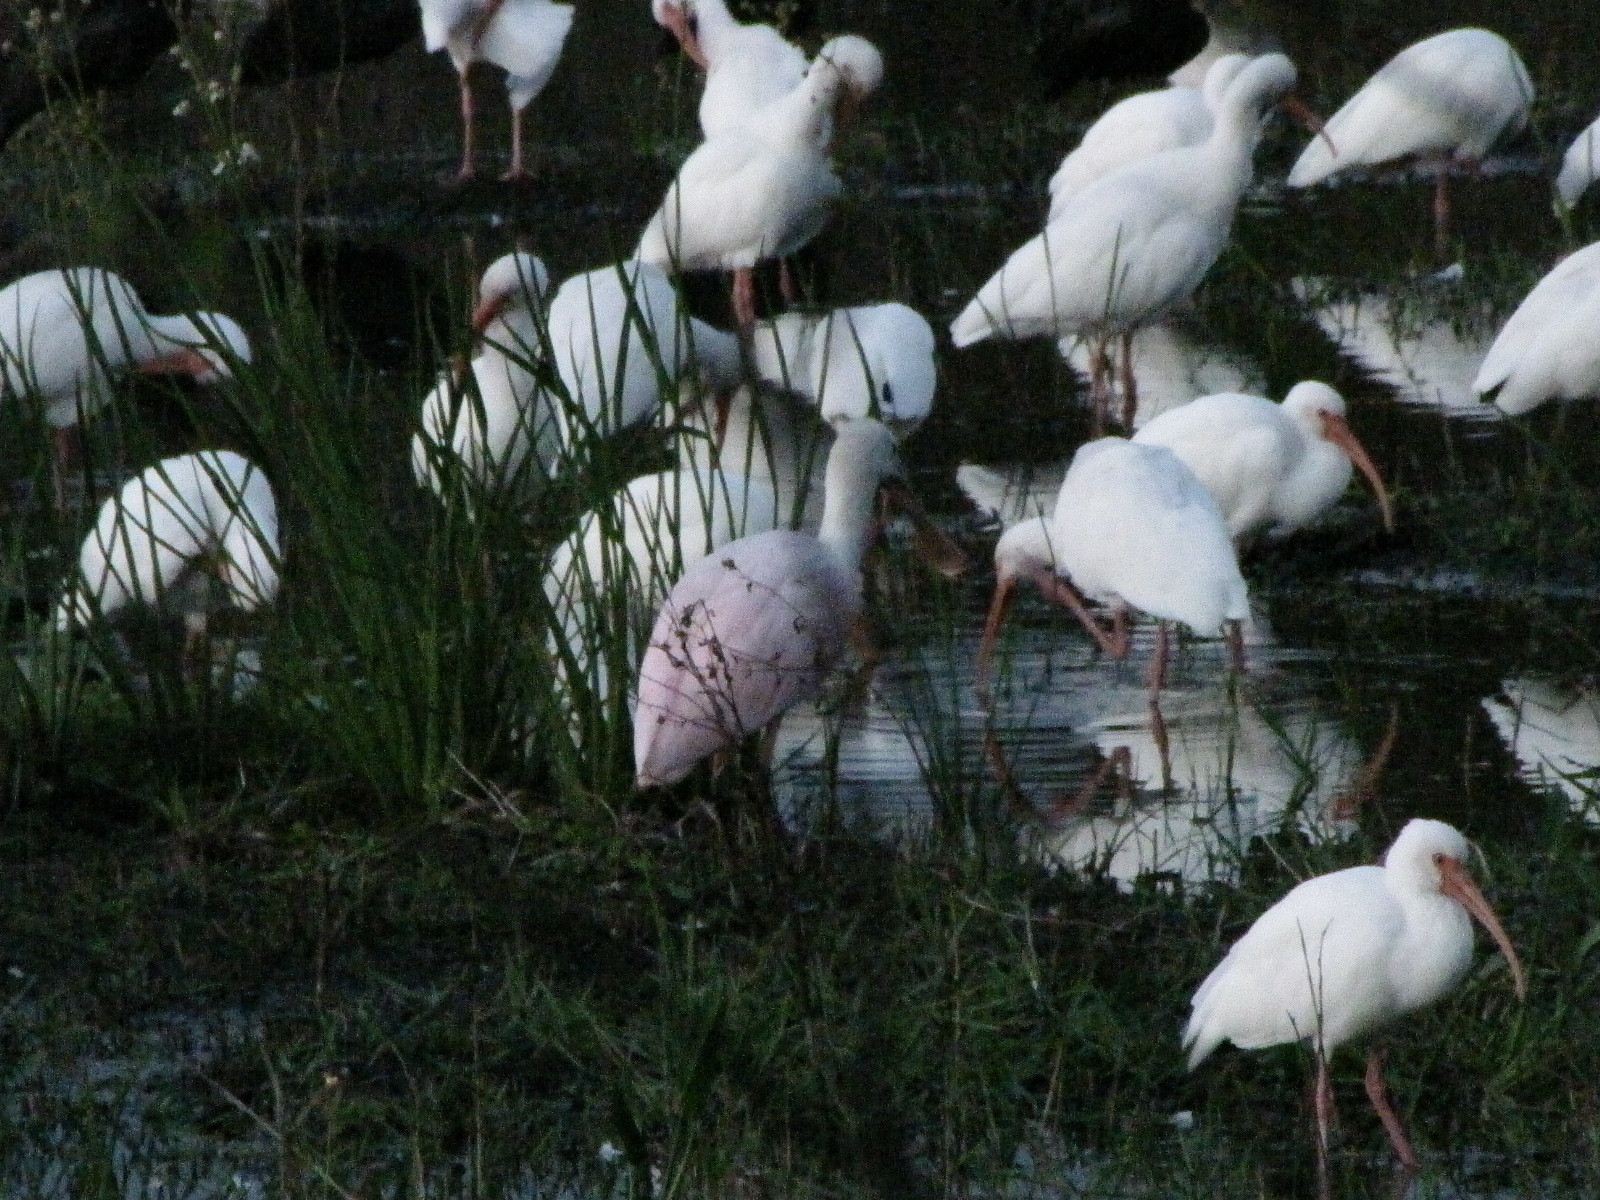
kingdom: Animalia
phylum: Chordata
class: Aves
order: Pelecaniformes
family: Threskiornithidae
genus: Platalea
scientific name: Platalea ajaja
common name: Roseate spoonbill
